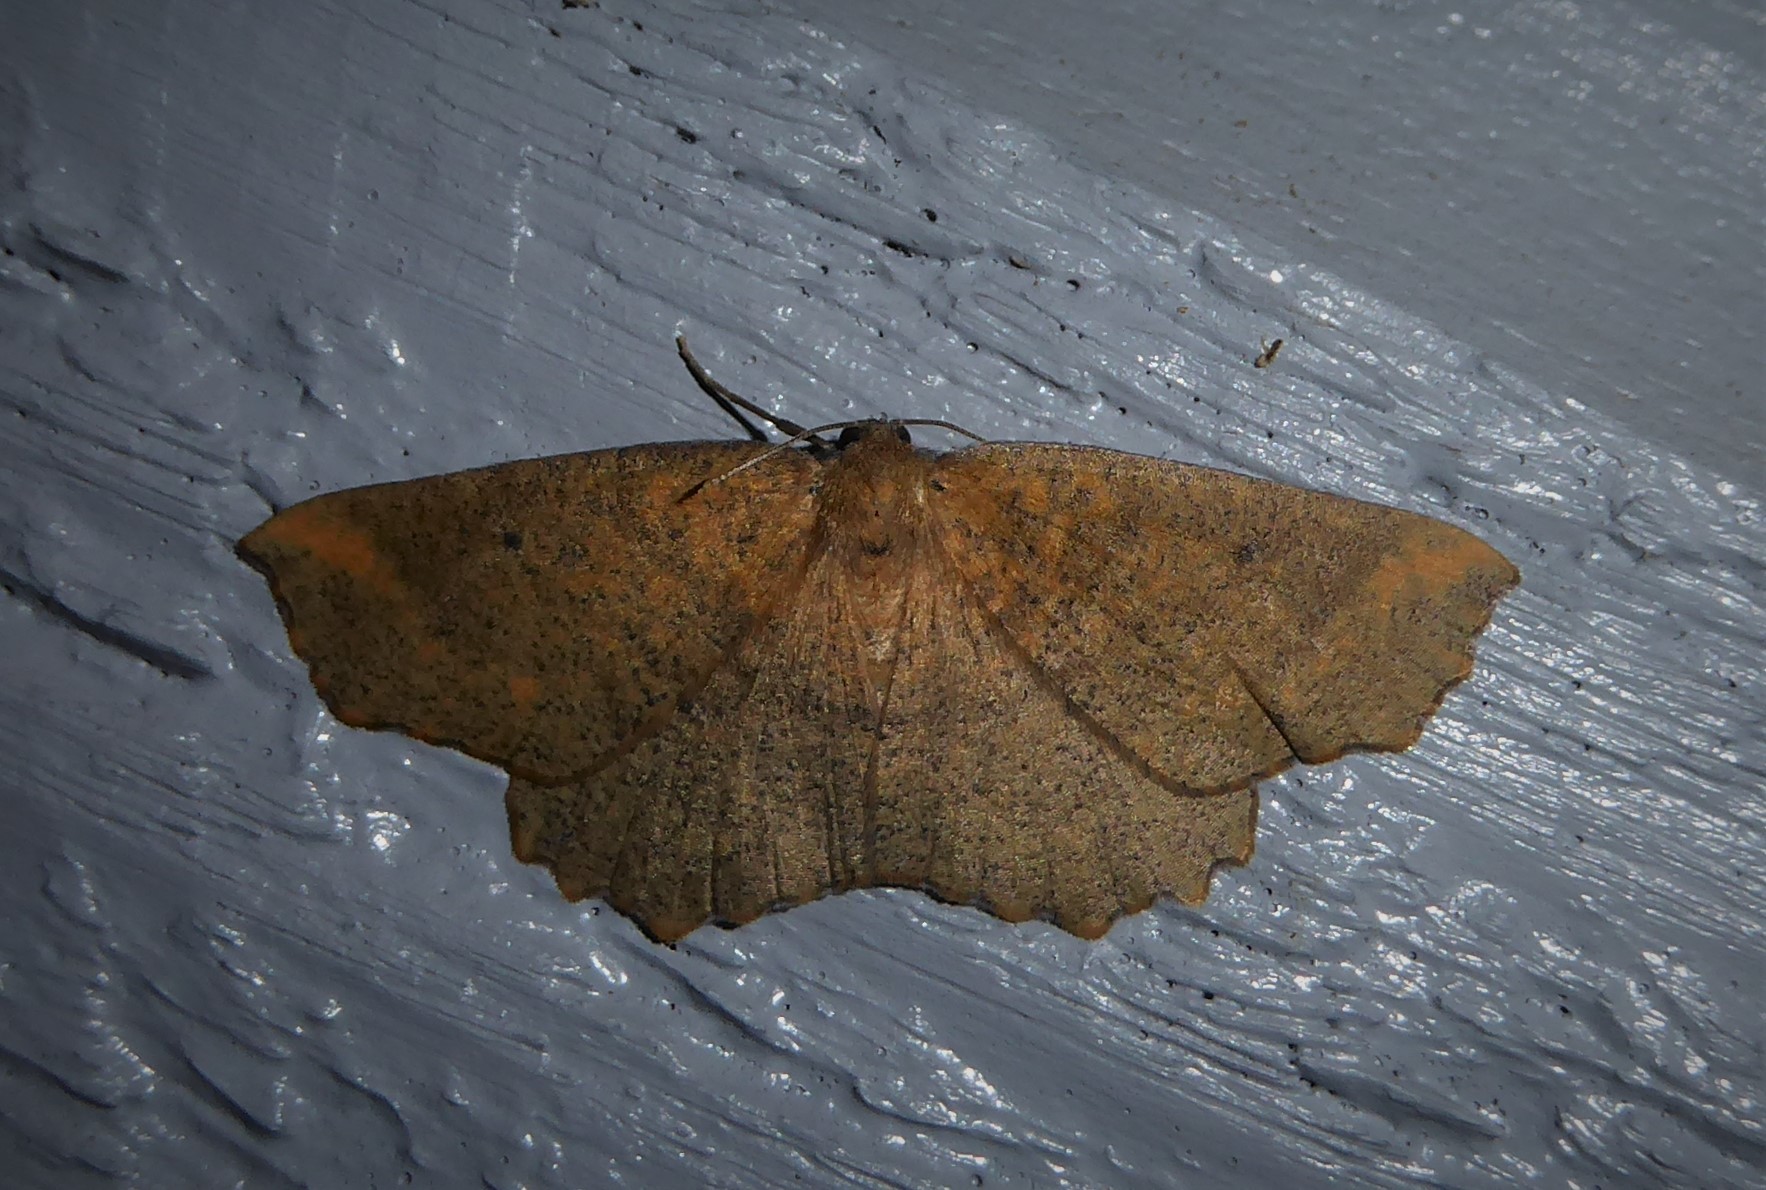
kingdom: Animalia
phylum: Arthropoda
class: Insecta
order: Lepidoptera
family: Geometridae
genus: Xyridacma
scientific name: Xyridacma ustaria
